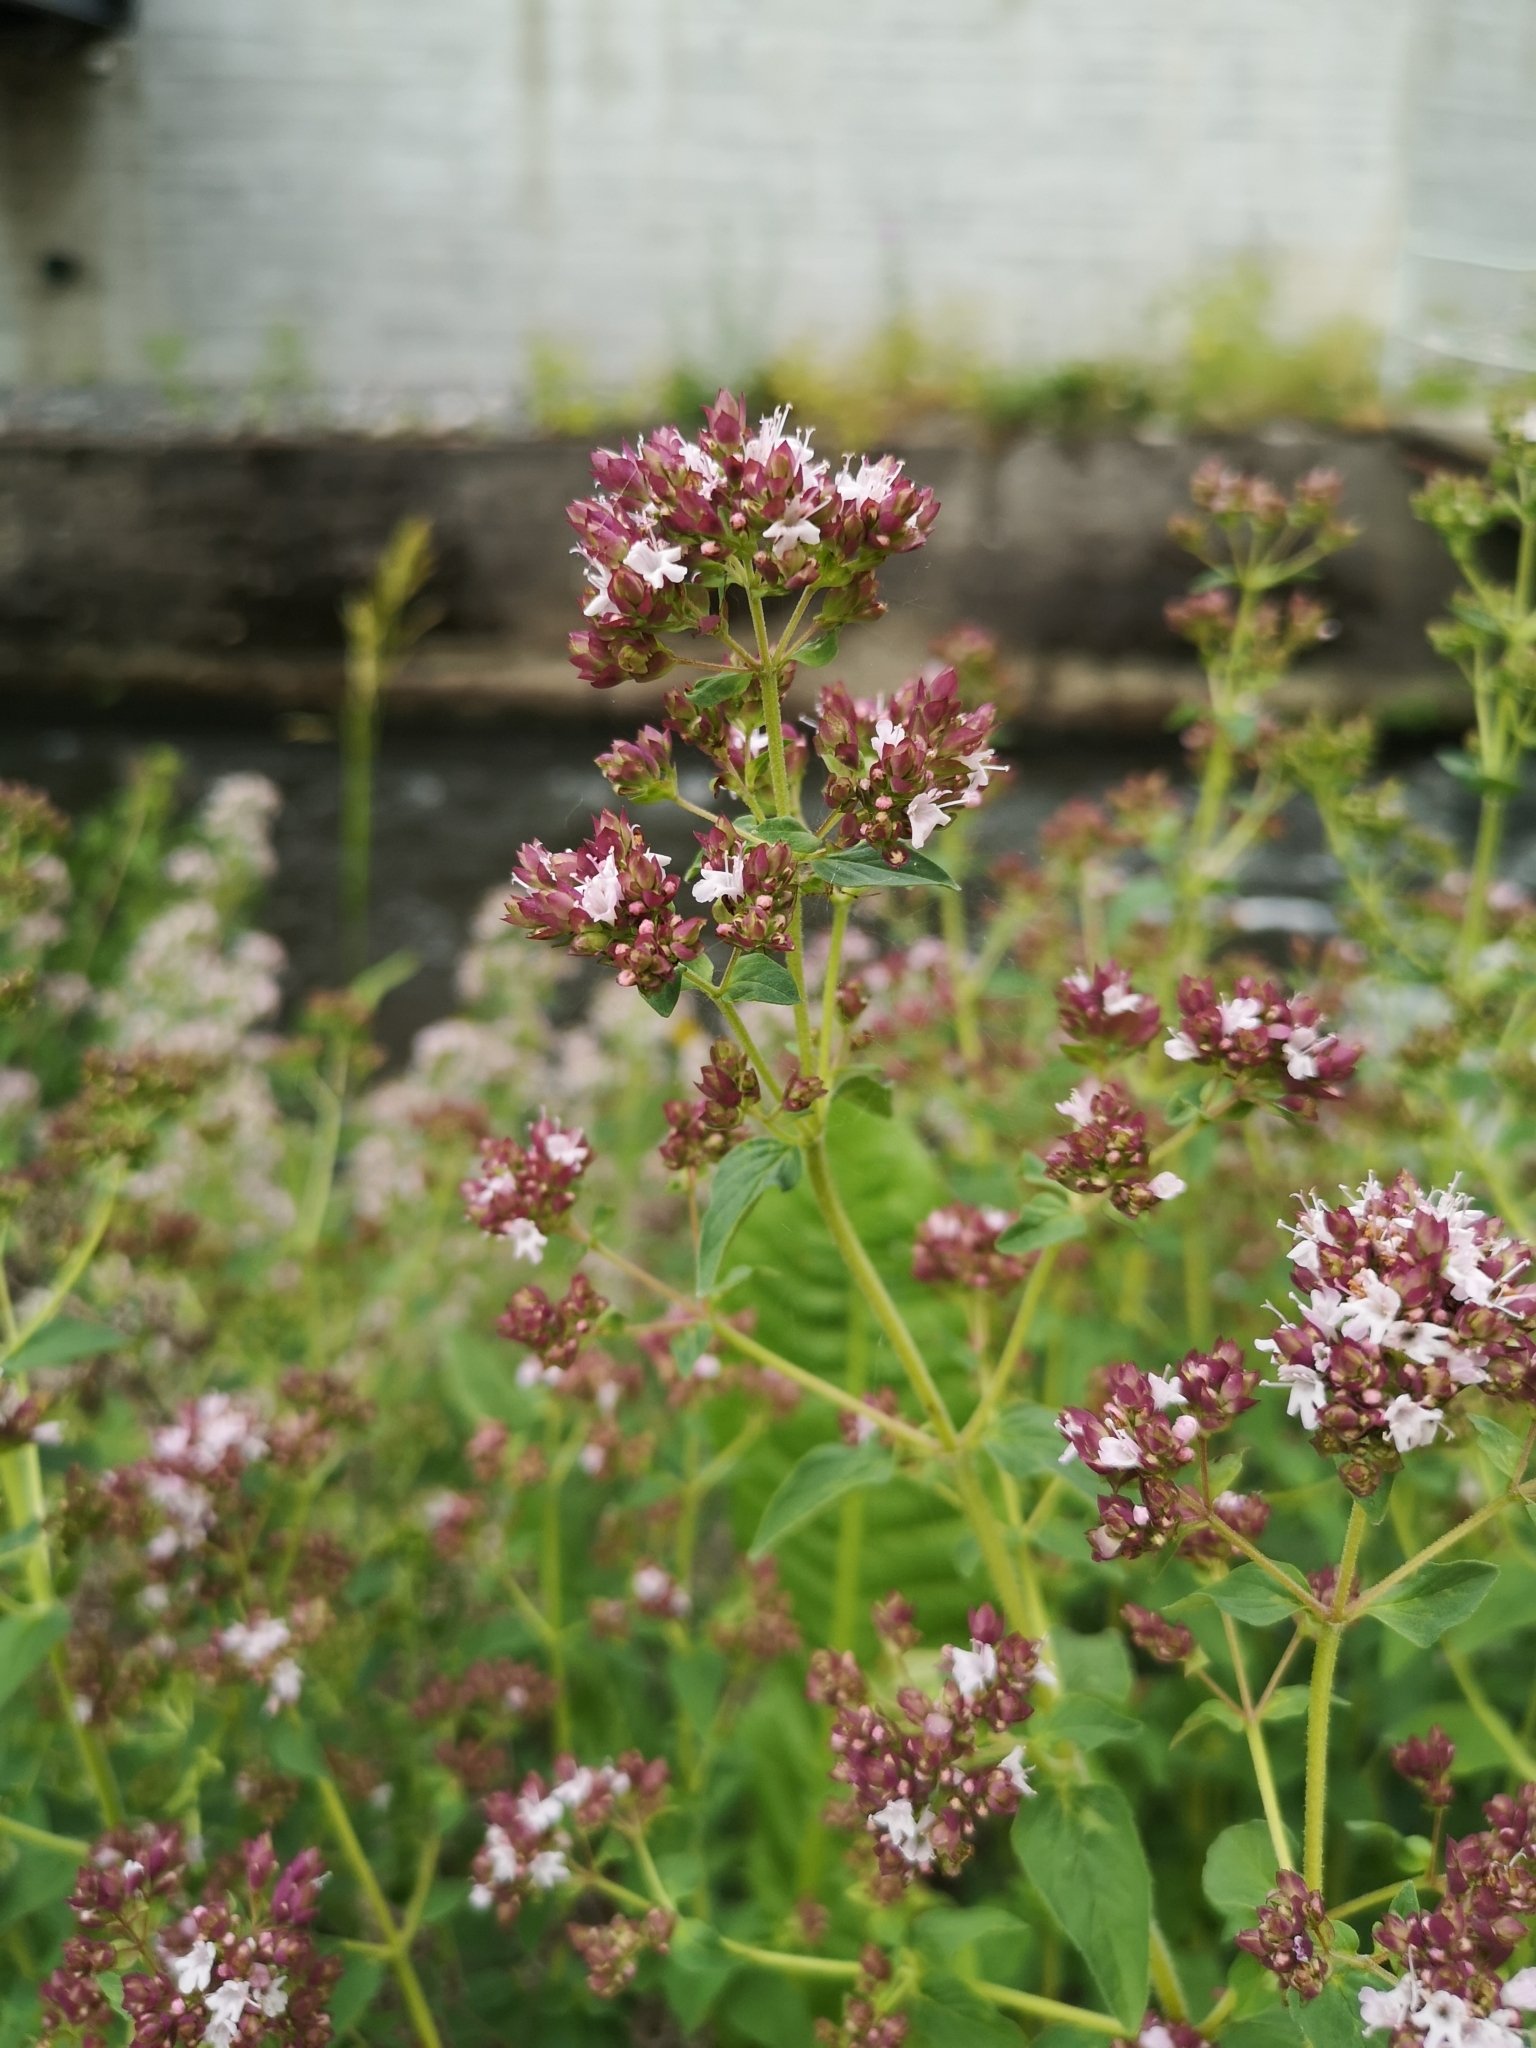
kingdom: Plantae
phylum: Tracheophyta
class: Magnoliopsida
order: Lamiales
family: Lamiaceae
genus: Origanum
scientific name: Origanum vulgare
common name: Wild marjoram
